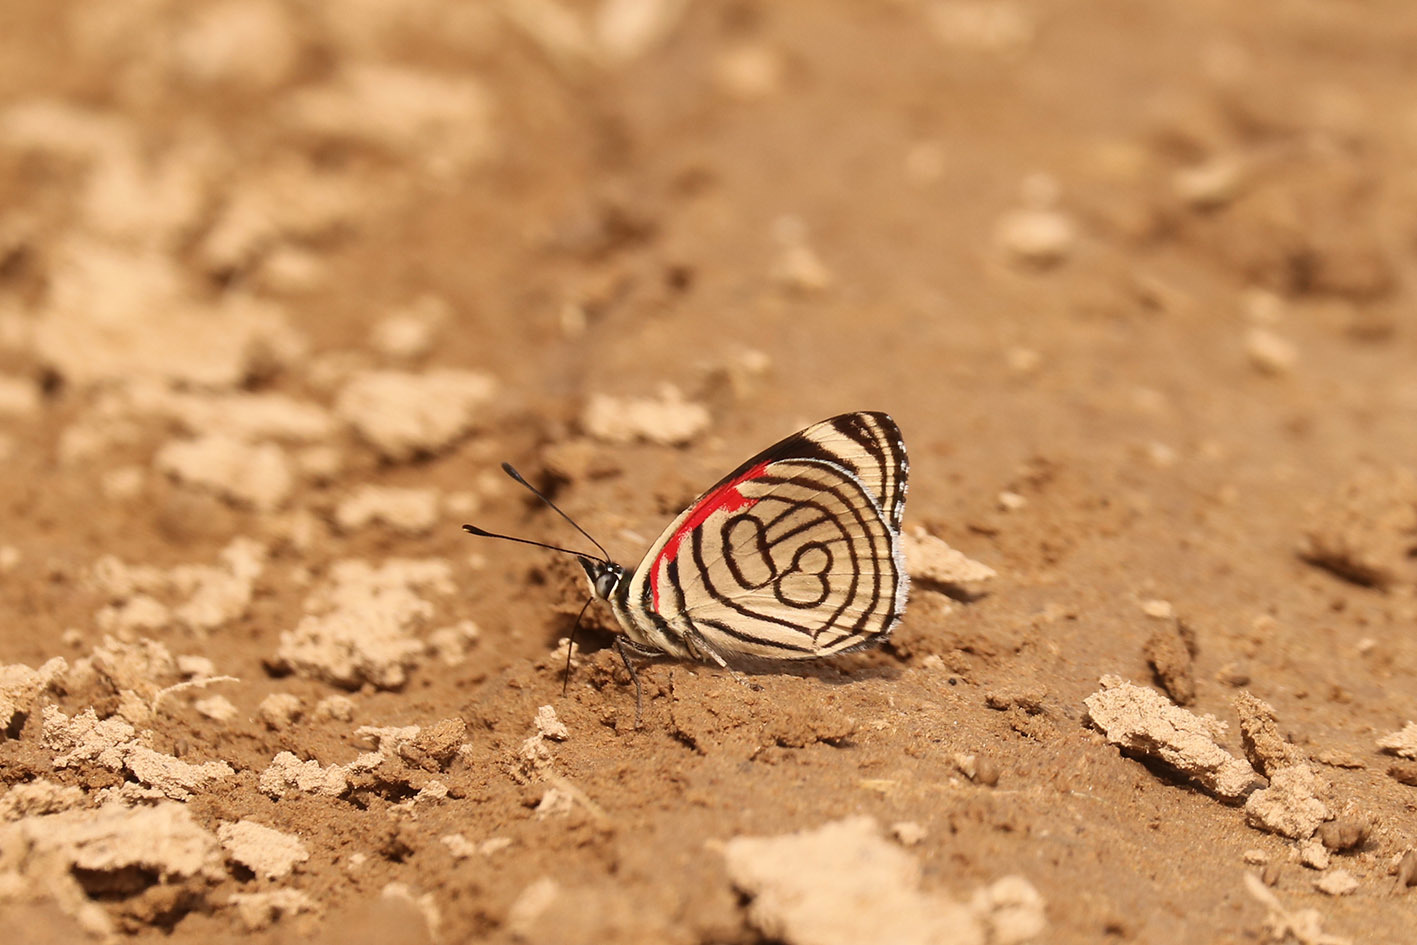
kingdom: Animalia
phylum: Arthropoda
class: Insecta
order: Lepidoptera
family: Nymphalidae
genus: Diaethria
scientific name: Diaethria candrena
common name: Number eighty
